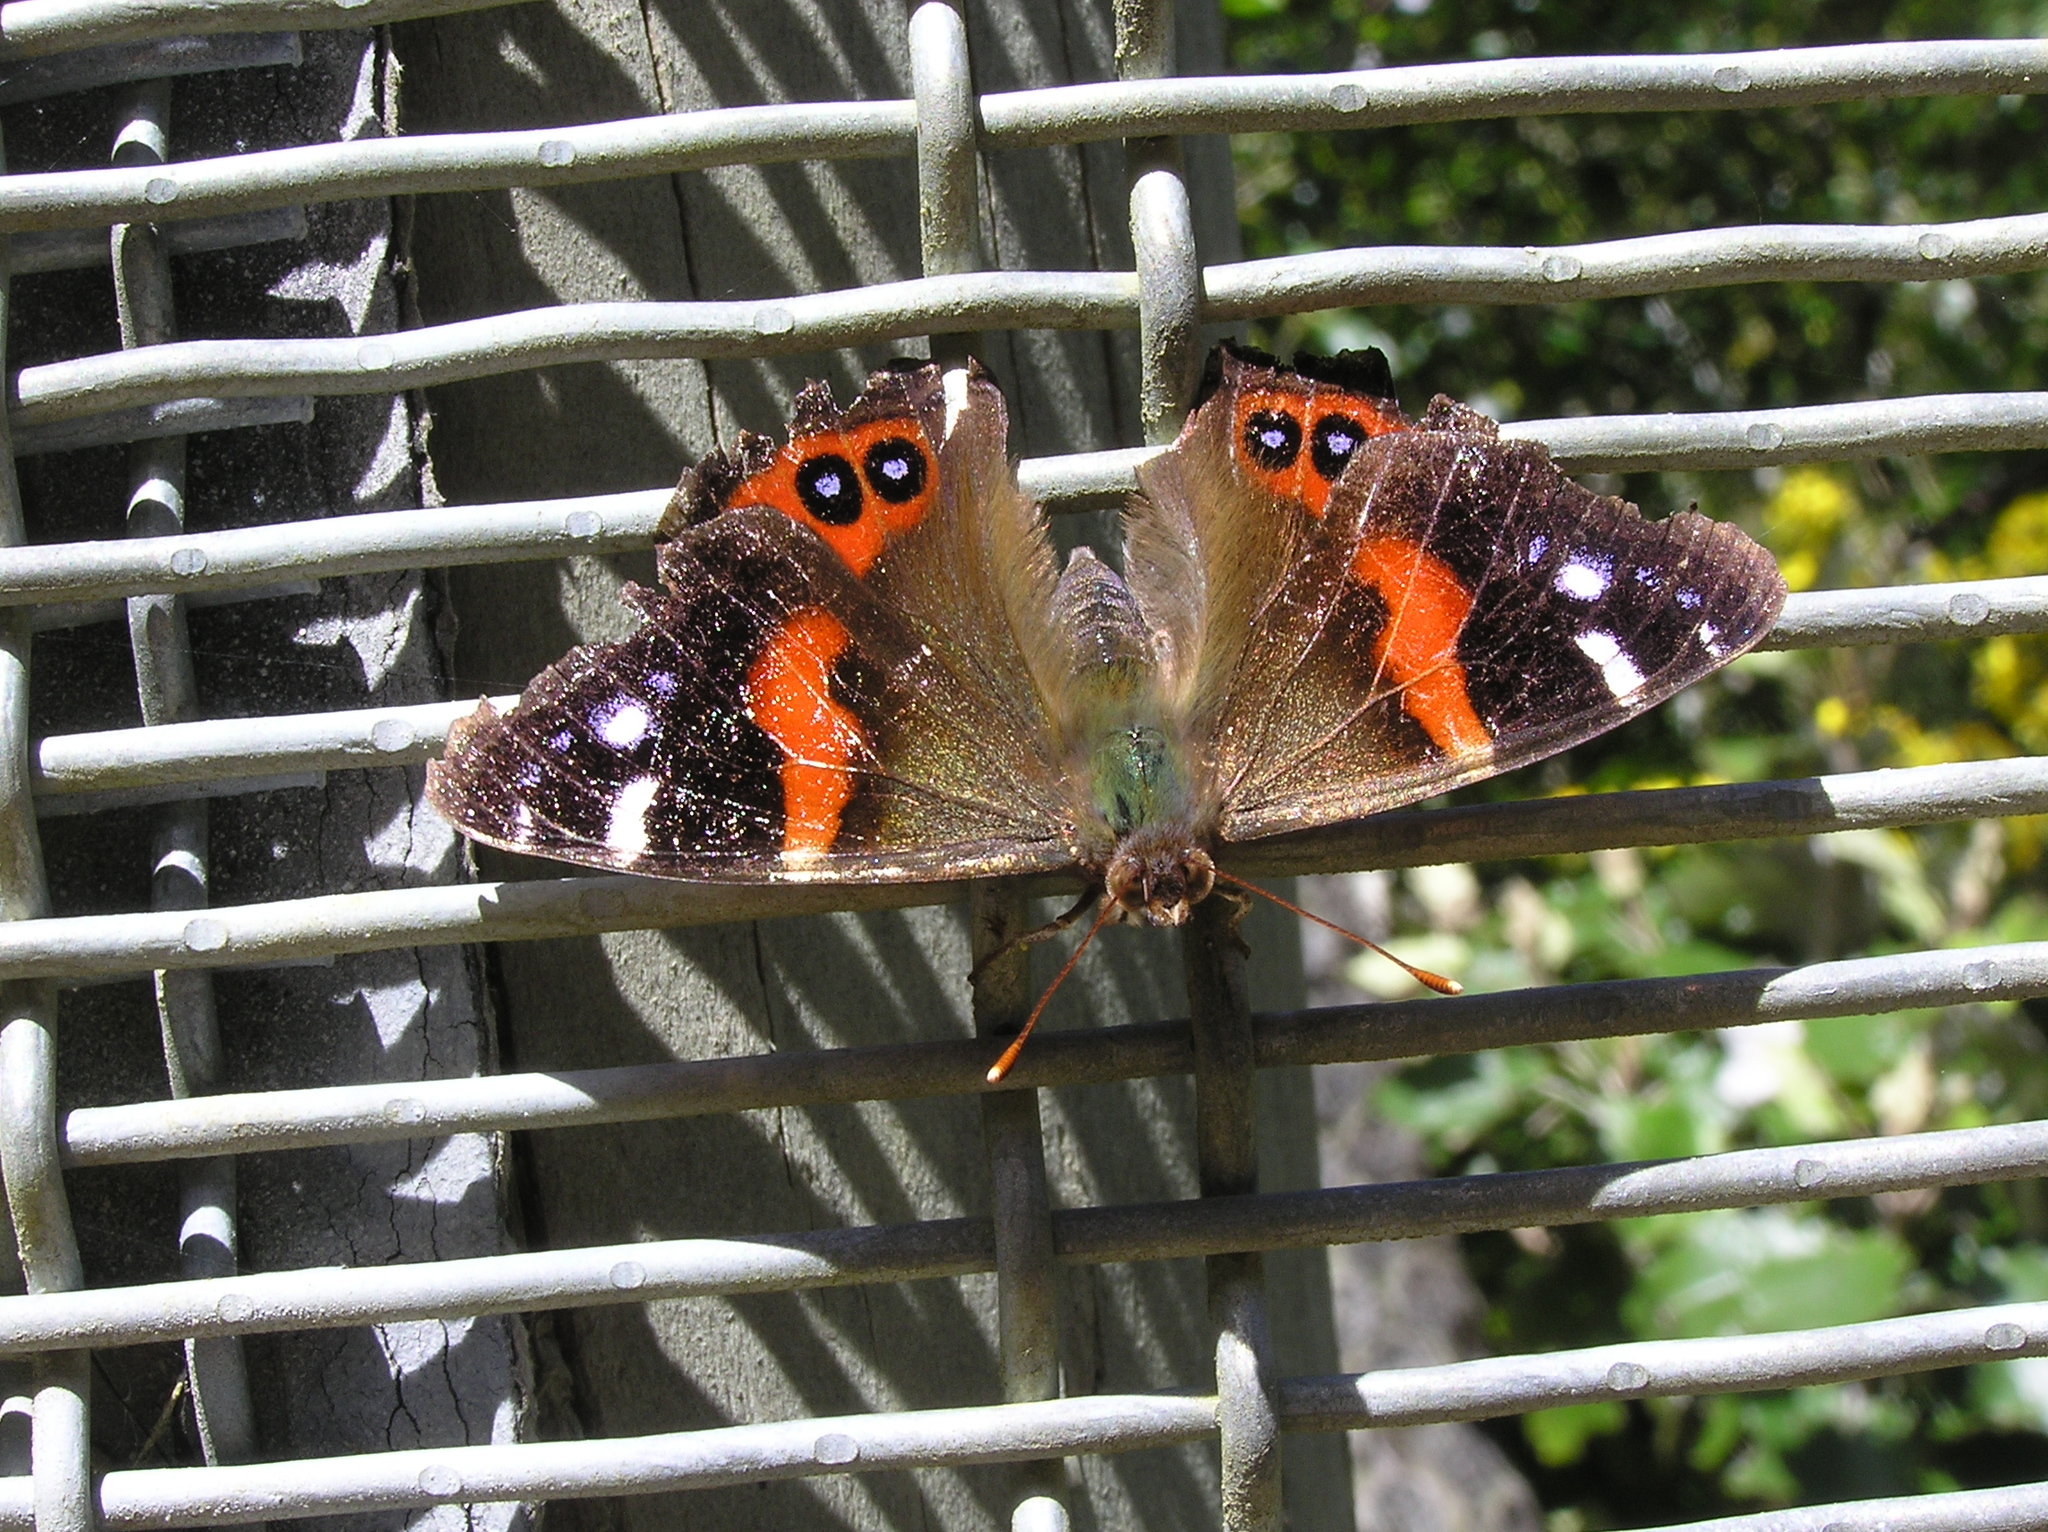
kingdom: Animalia
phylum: Arthropoda
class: Insecta
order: Lepidoptera
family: Nymphalidae
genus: Vanessa
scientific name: Vanessa gonerilla
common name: New zealand red admiral
